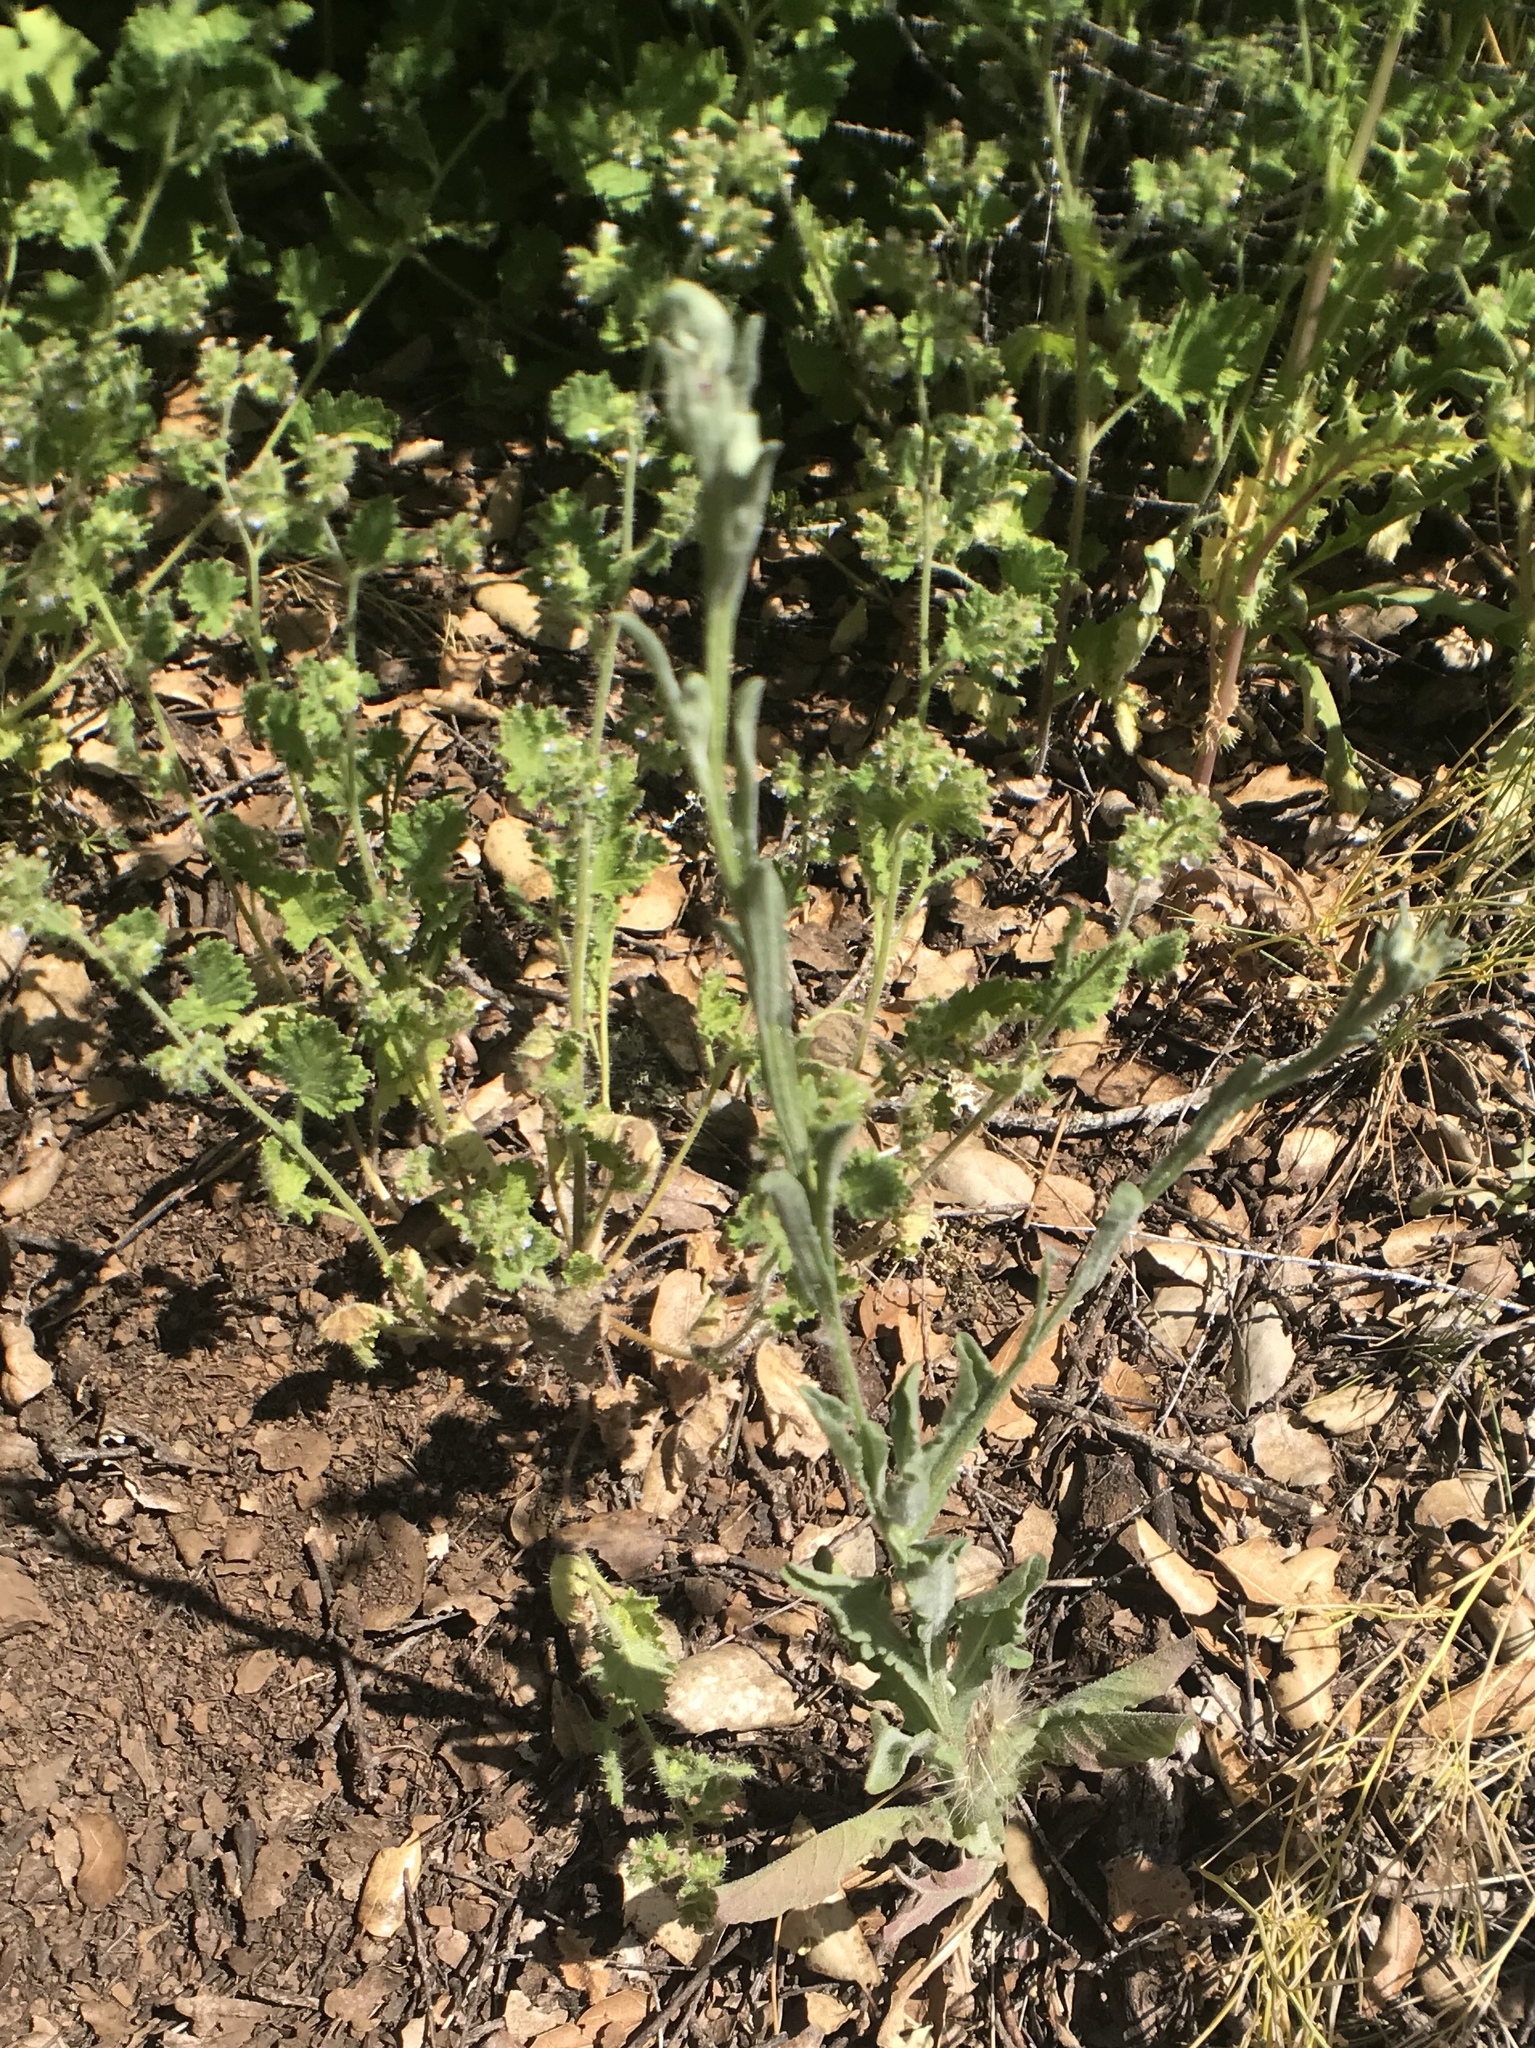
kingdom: Plantae
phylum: Tracheophyta
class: Magnoliopsida
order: Asterales
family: Asteraceae
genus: Centaurea
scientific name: Centaurea melitensis
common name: Maltese star-thistle
